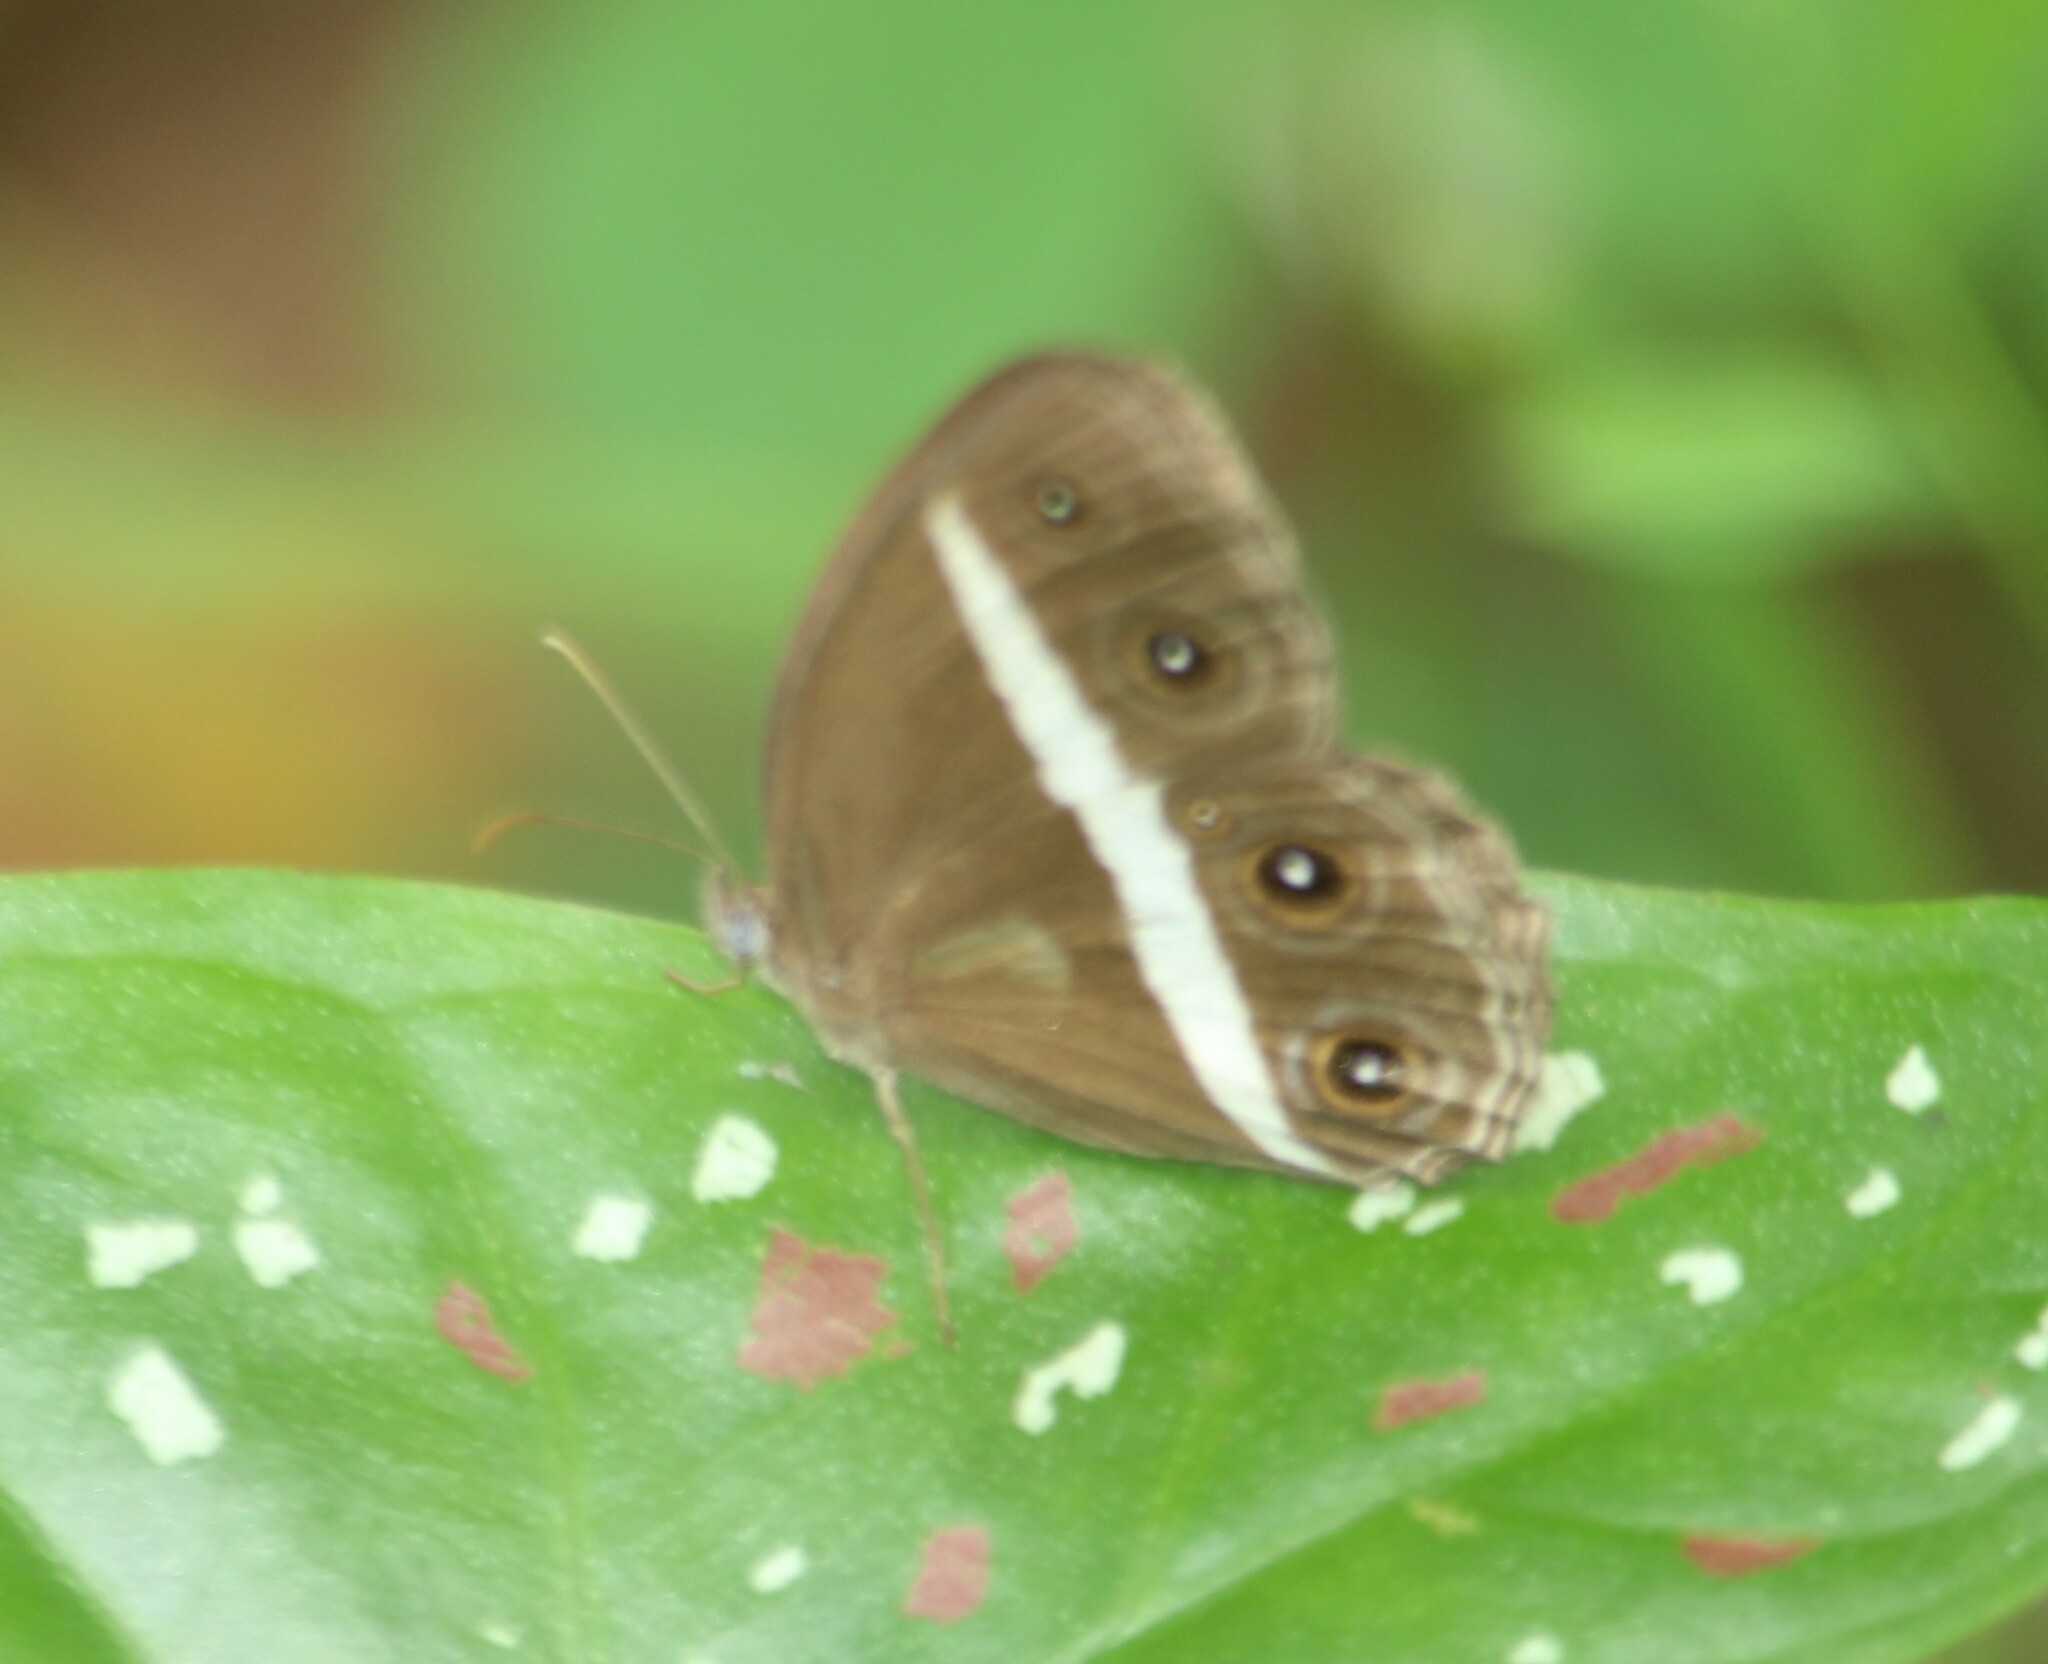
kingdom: Animalia
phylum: Arthropoda
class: Insecta
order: Lepidoptera
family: Nymphalidae
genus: Orsotriaena
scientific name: Orsotriaena medus
